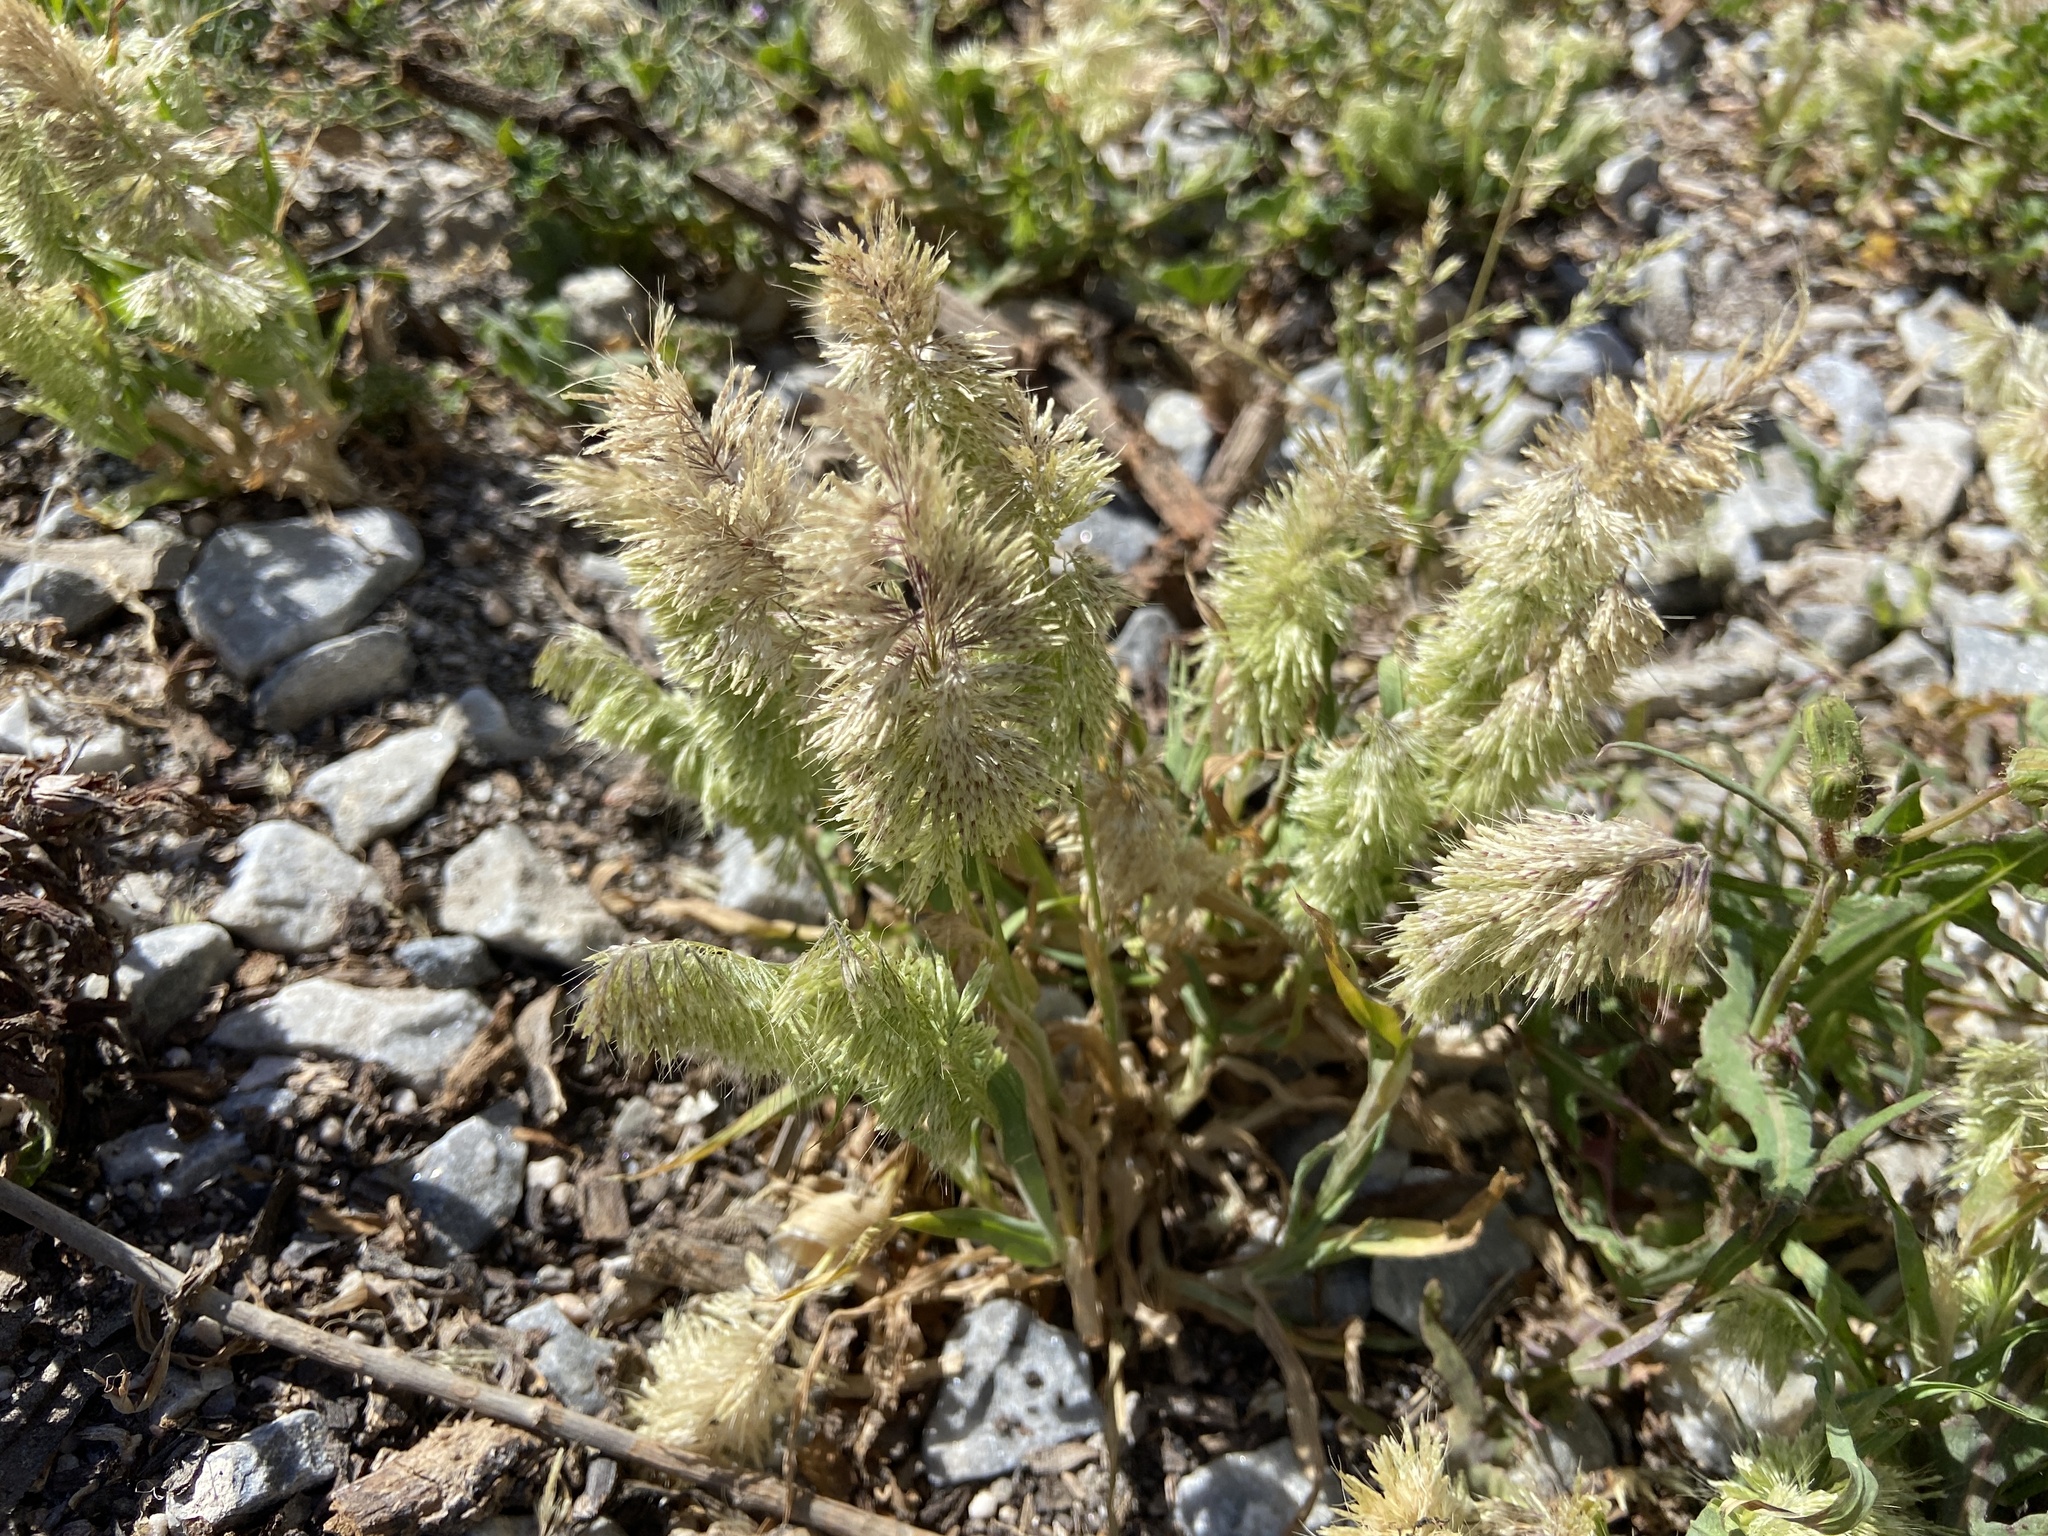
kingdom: Plantae
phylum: Tracheophyta
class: Liliopsida
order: Poales
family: Poaceae
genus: Lamarckia
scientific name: Lamarckia aurea
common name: Golden dog's-tail
